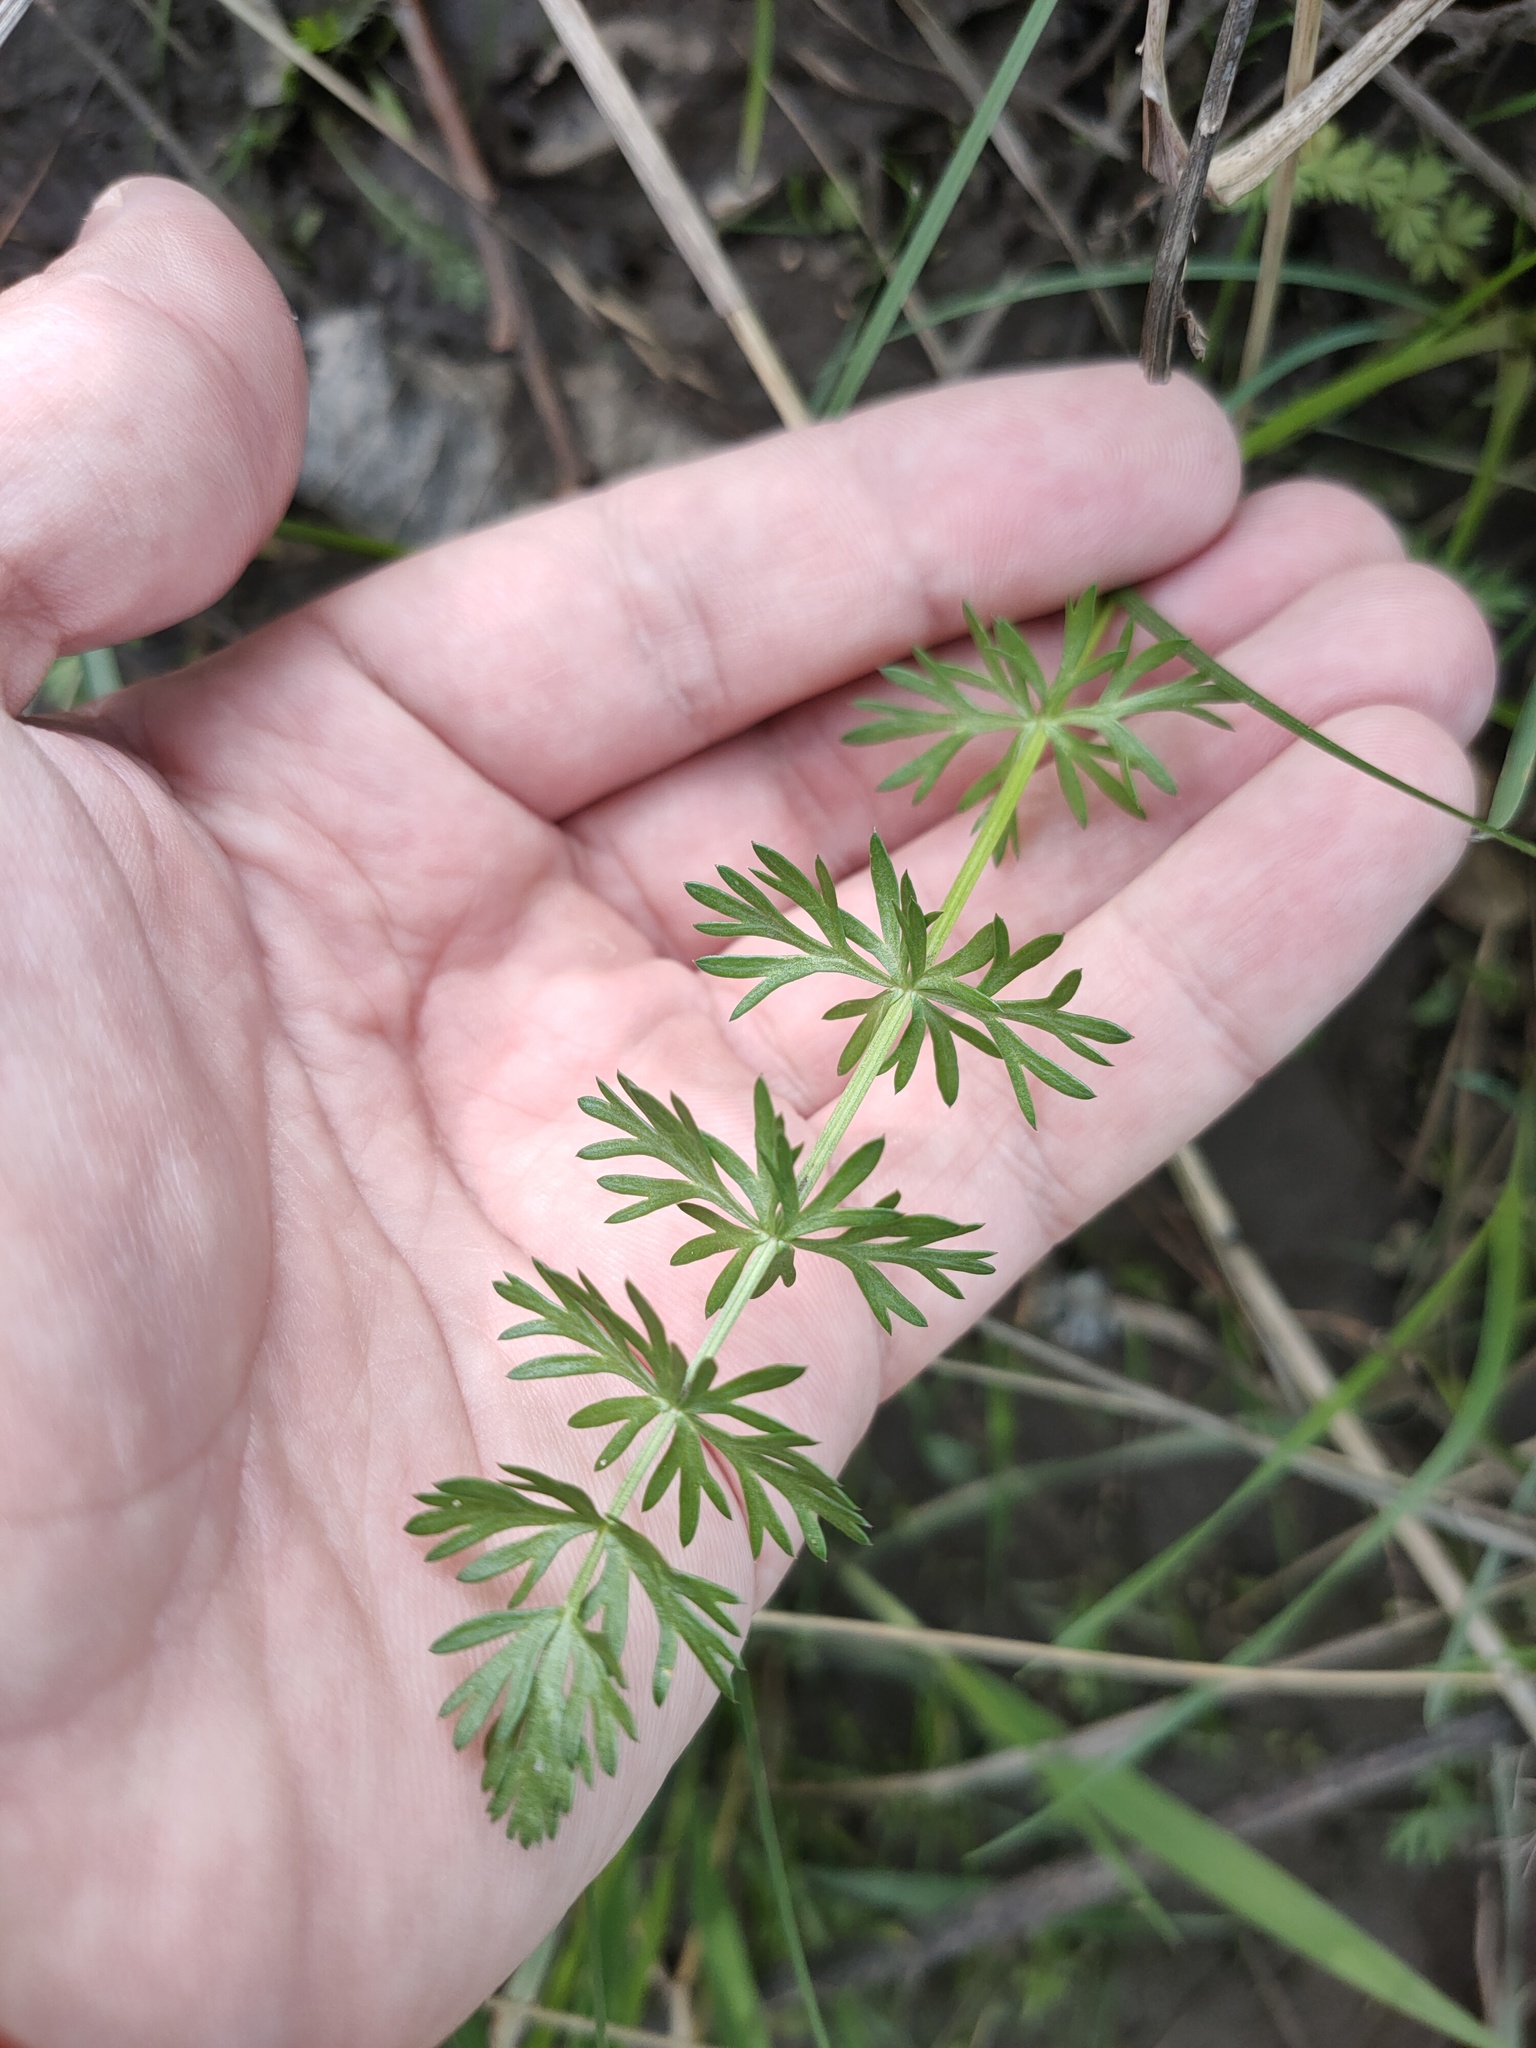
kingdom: Plantae
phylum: Tracheophyta
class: Magnoliopsida
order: Apiales
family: Apiaceae
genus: Carum
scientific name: Carum carvi
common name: Caraway
